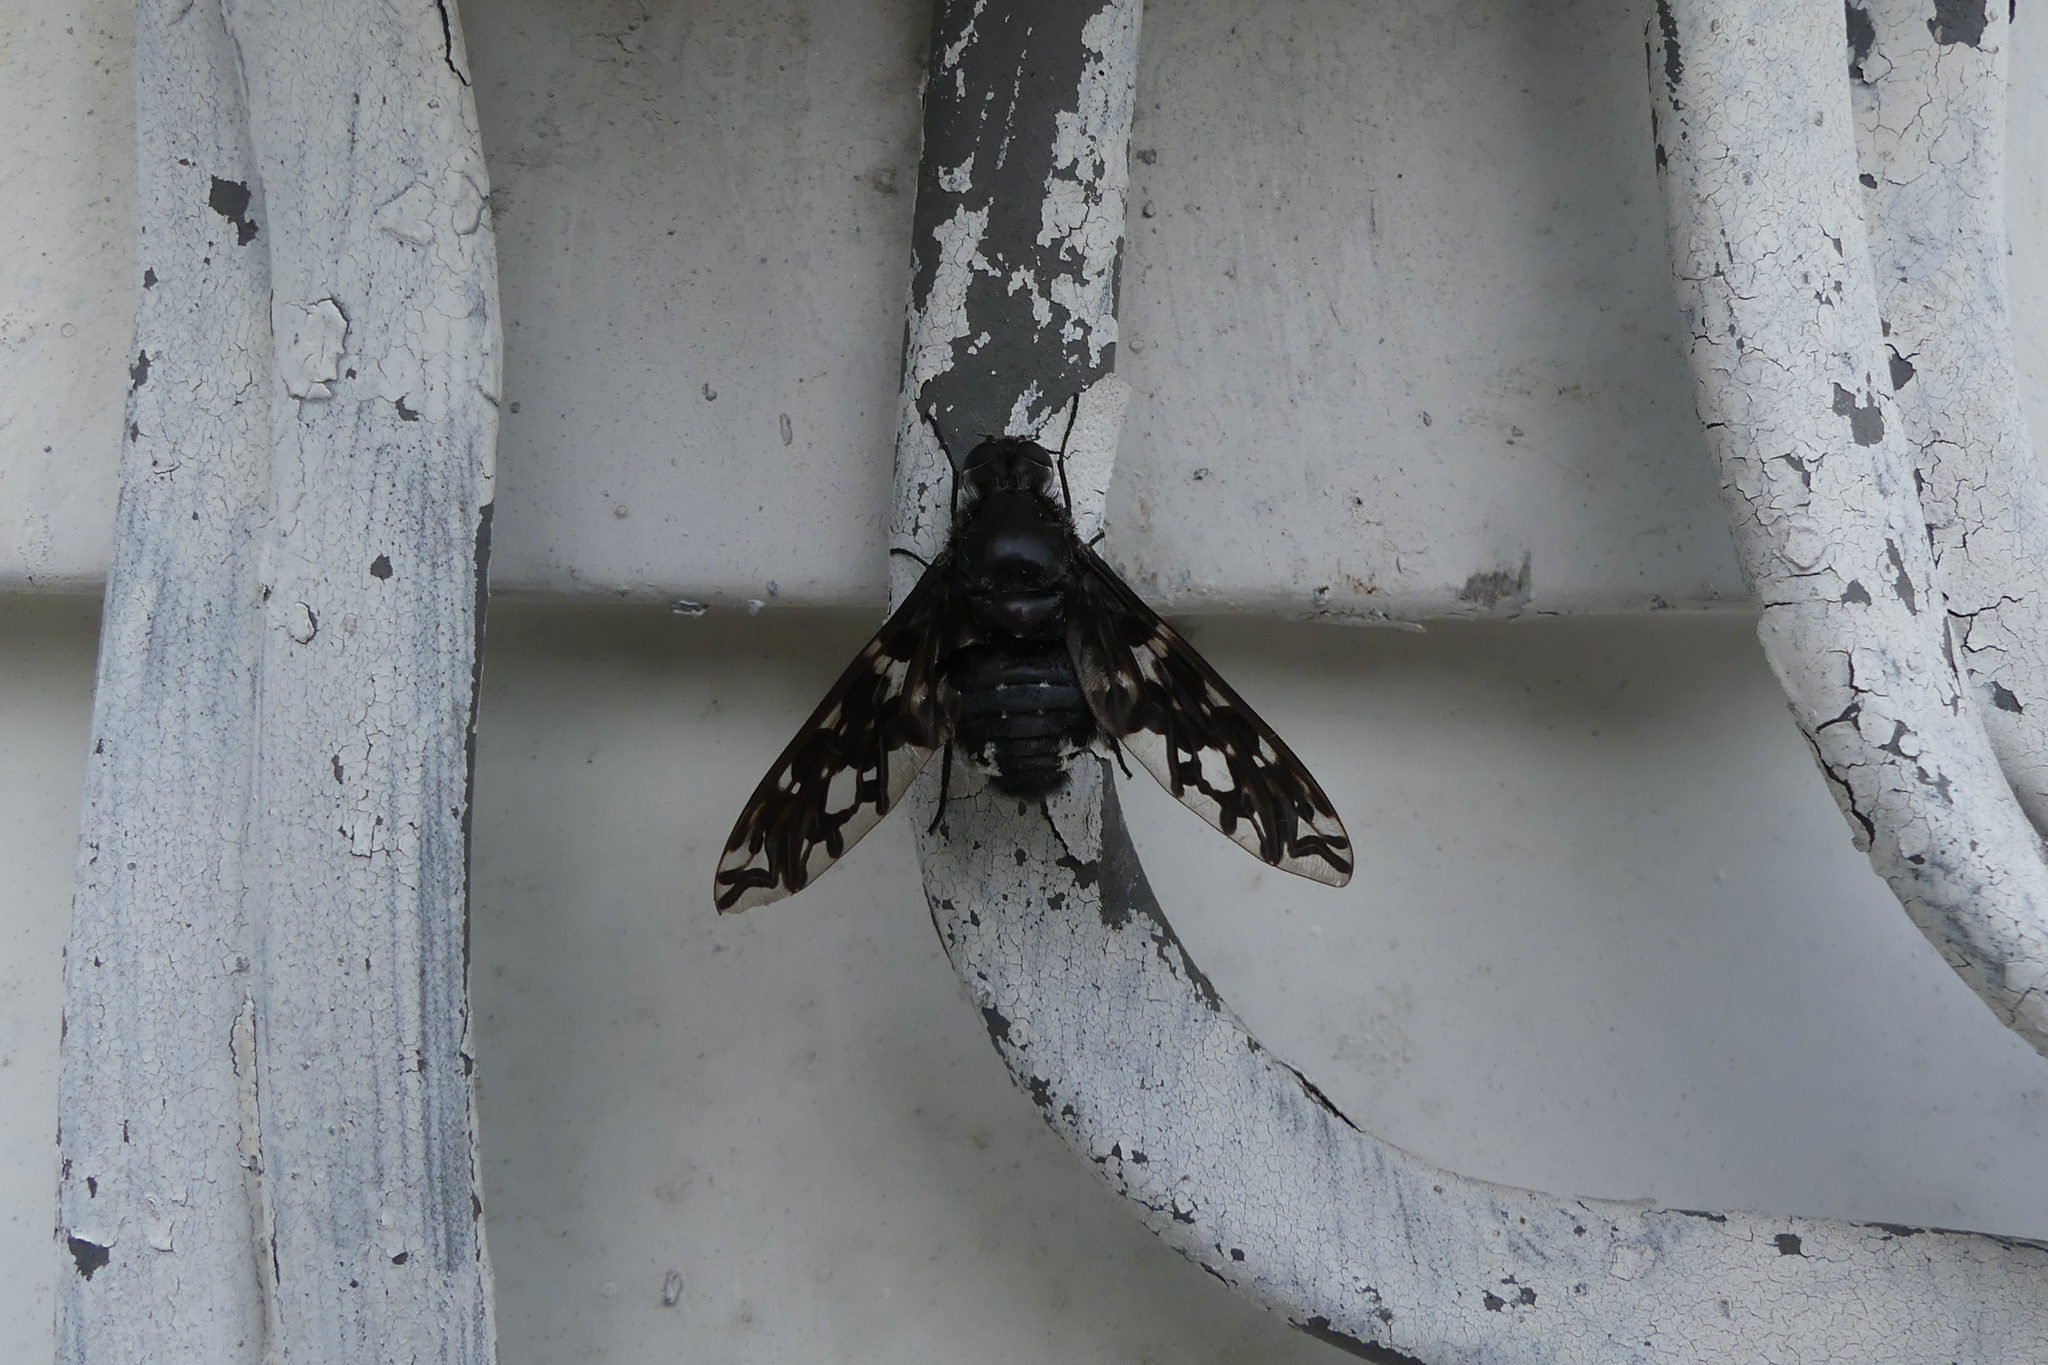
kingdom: Animalia
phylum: Arthropoda
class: Insecta
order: Diptera
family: Bombyliidae
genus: Xenox
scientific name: Xenox tigrinus
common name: Tiger bee fly
